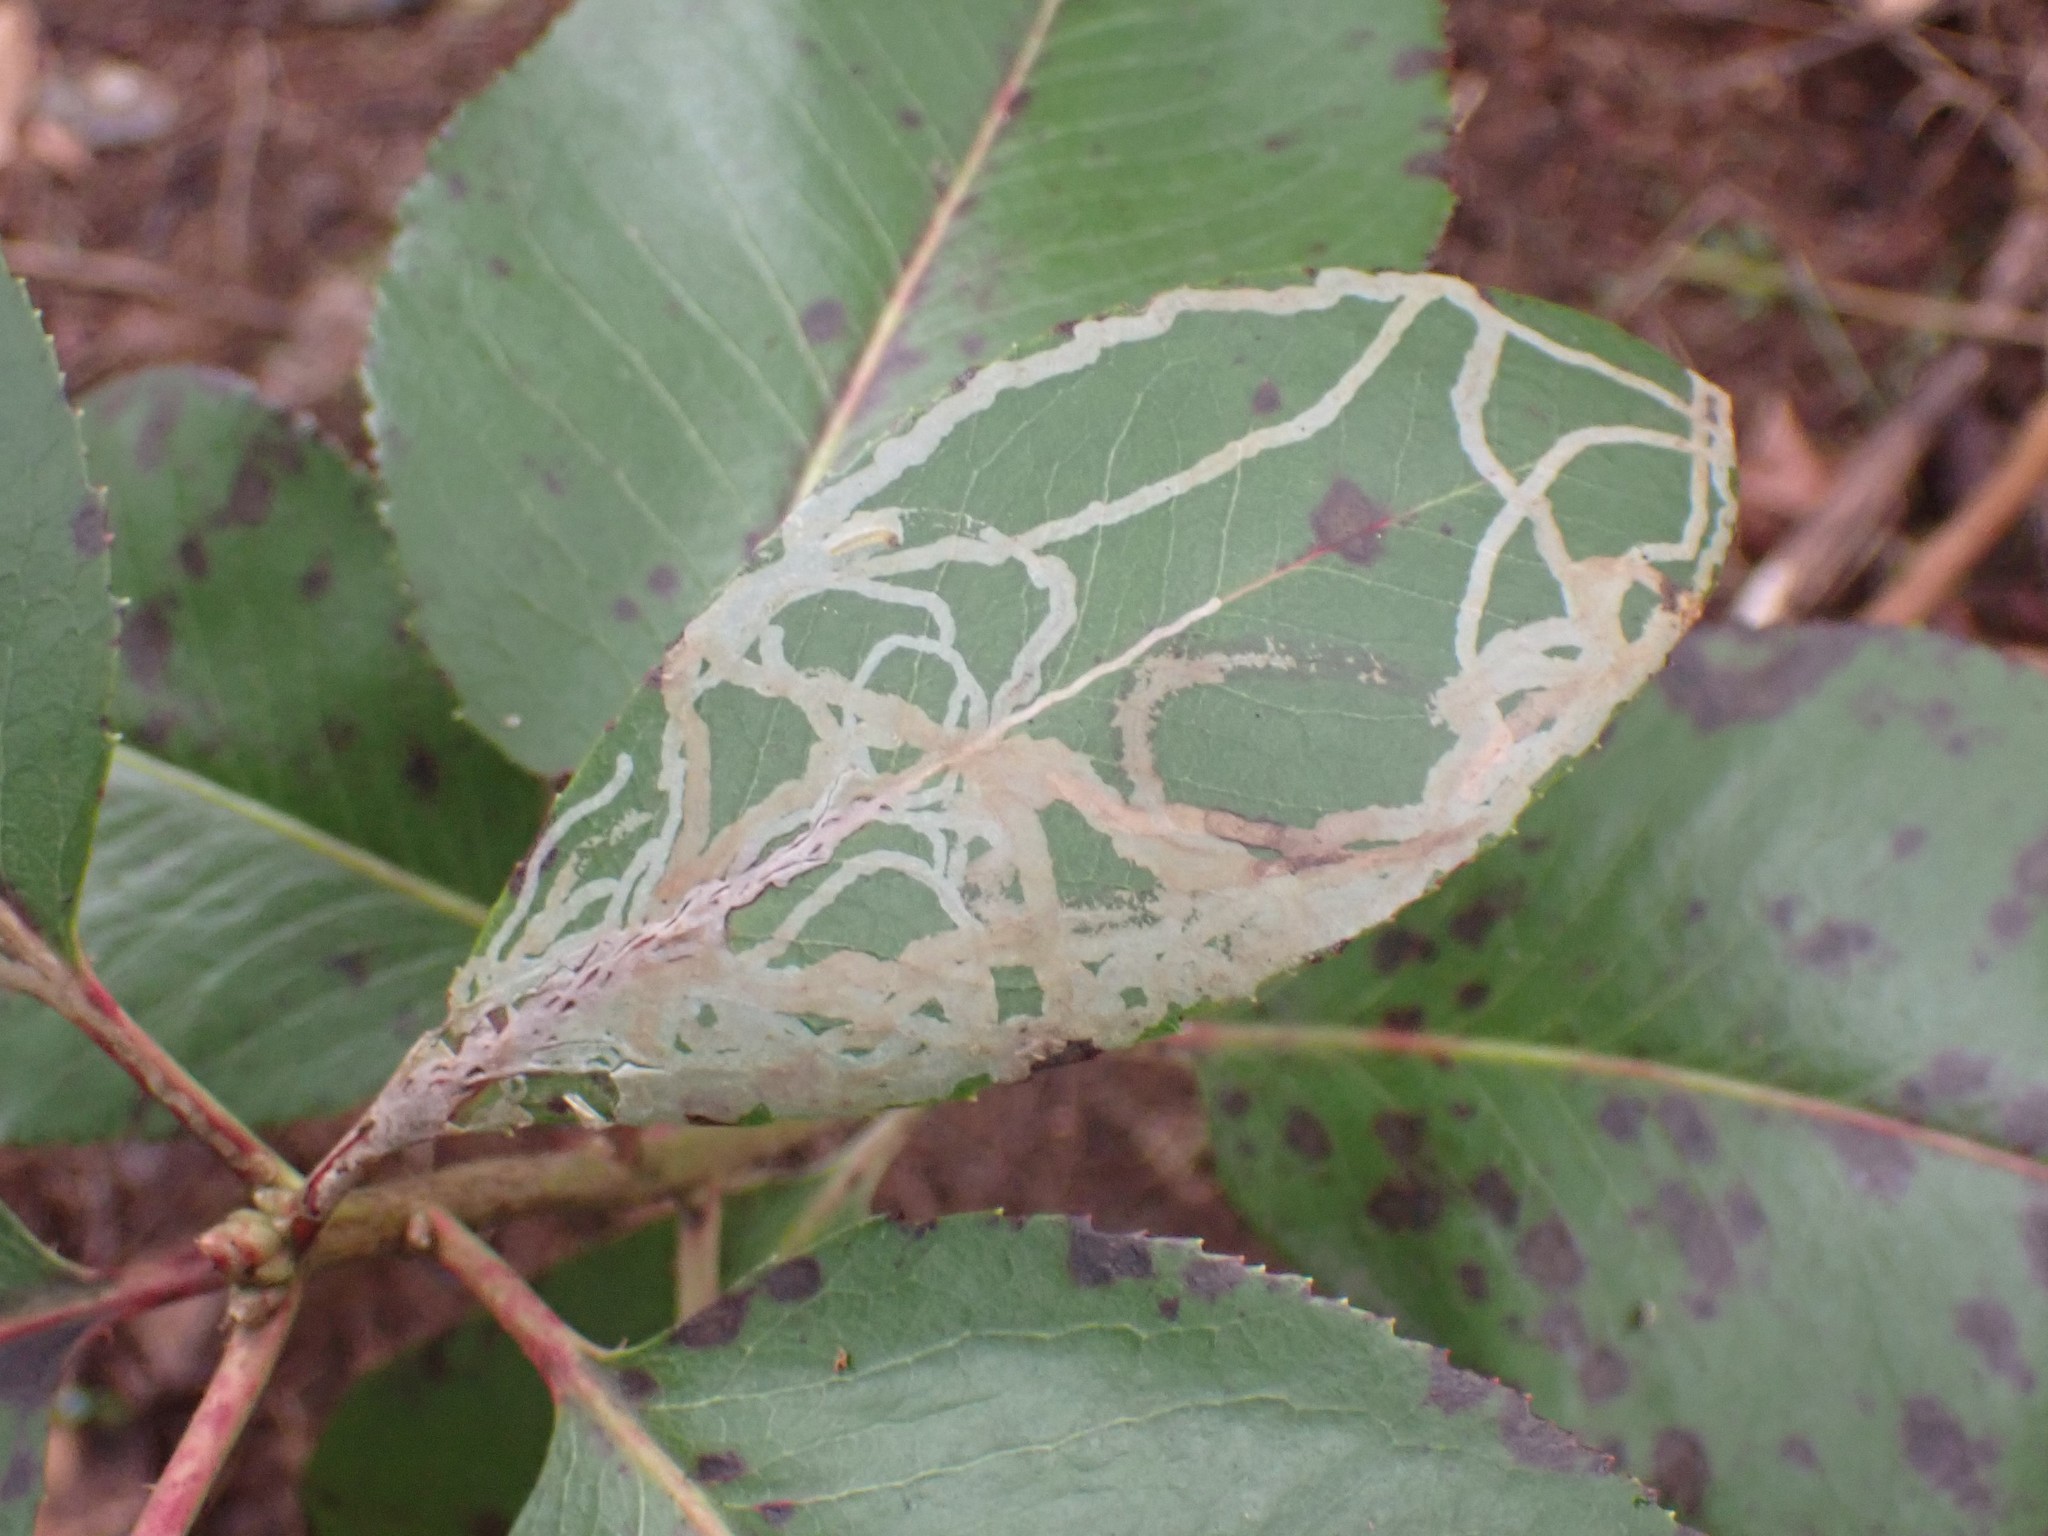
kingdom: Animalia
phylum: Arthropoda
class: Insecta
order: Lepidoptera
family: Gracillariidae
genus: Marmara
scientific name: Marmara arbutiella
